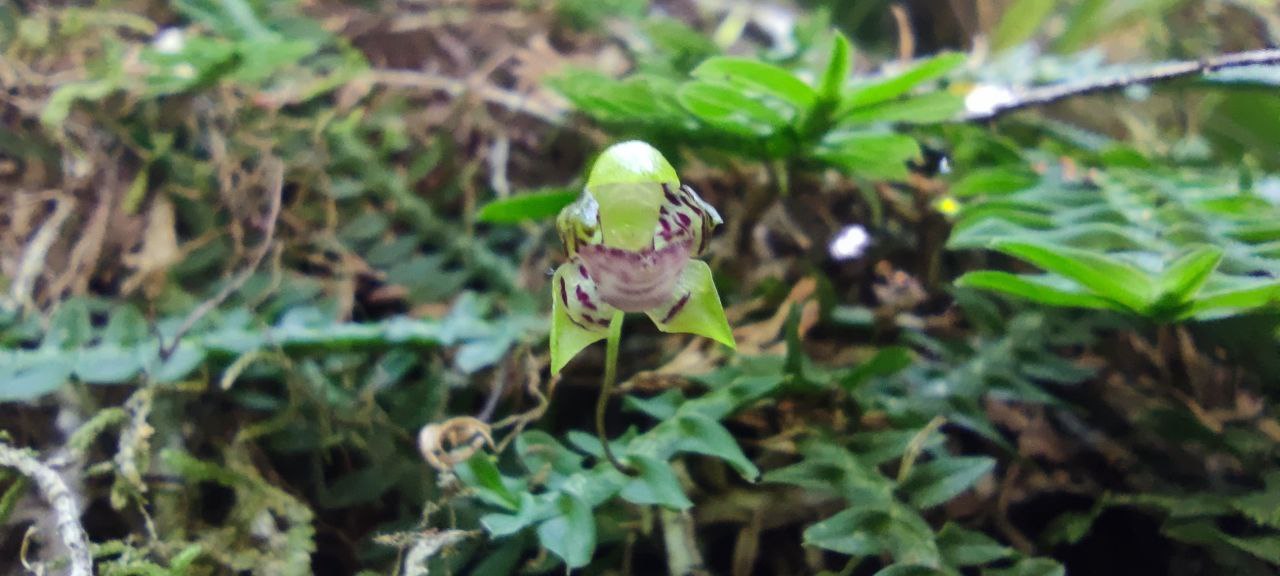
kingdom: Plantae
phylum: Tracheophyta
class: Liliopsida
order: Asparagales
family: Orchidaceae
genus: Dichaea
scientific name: Dichaea neglecta
